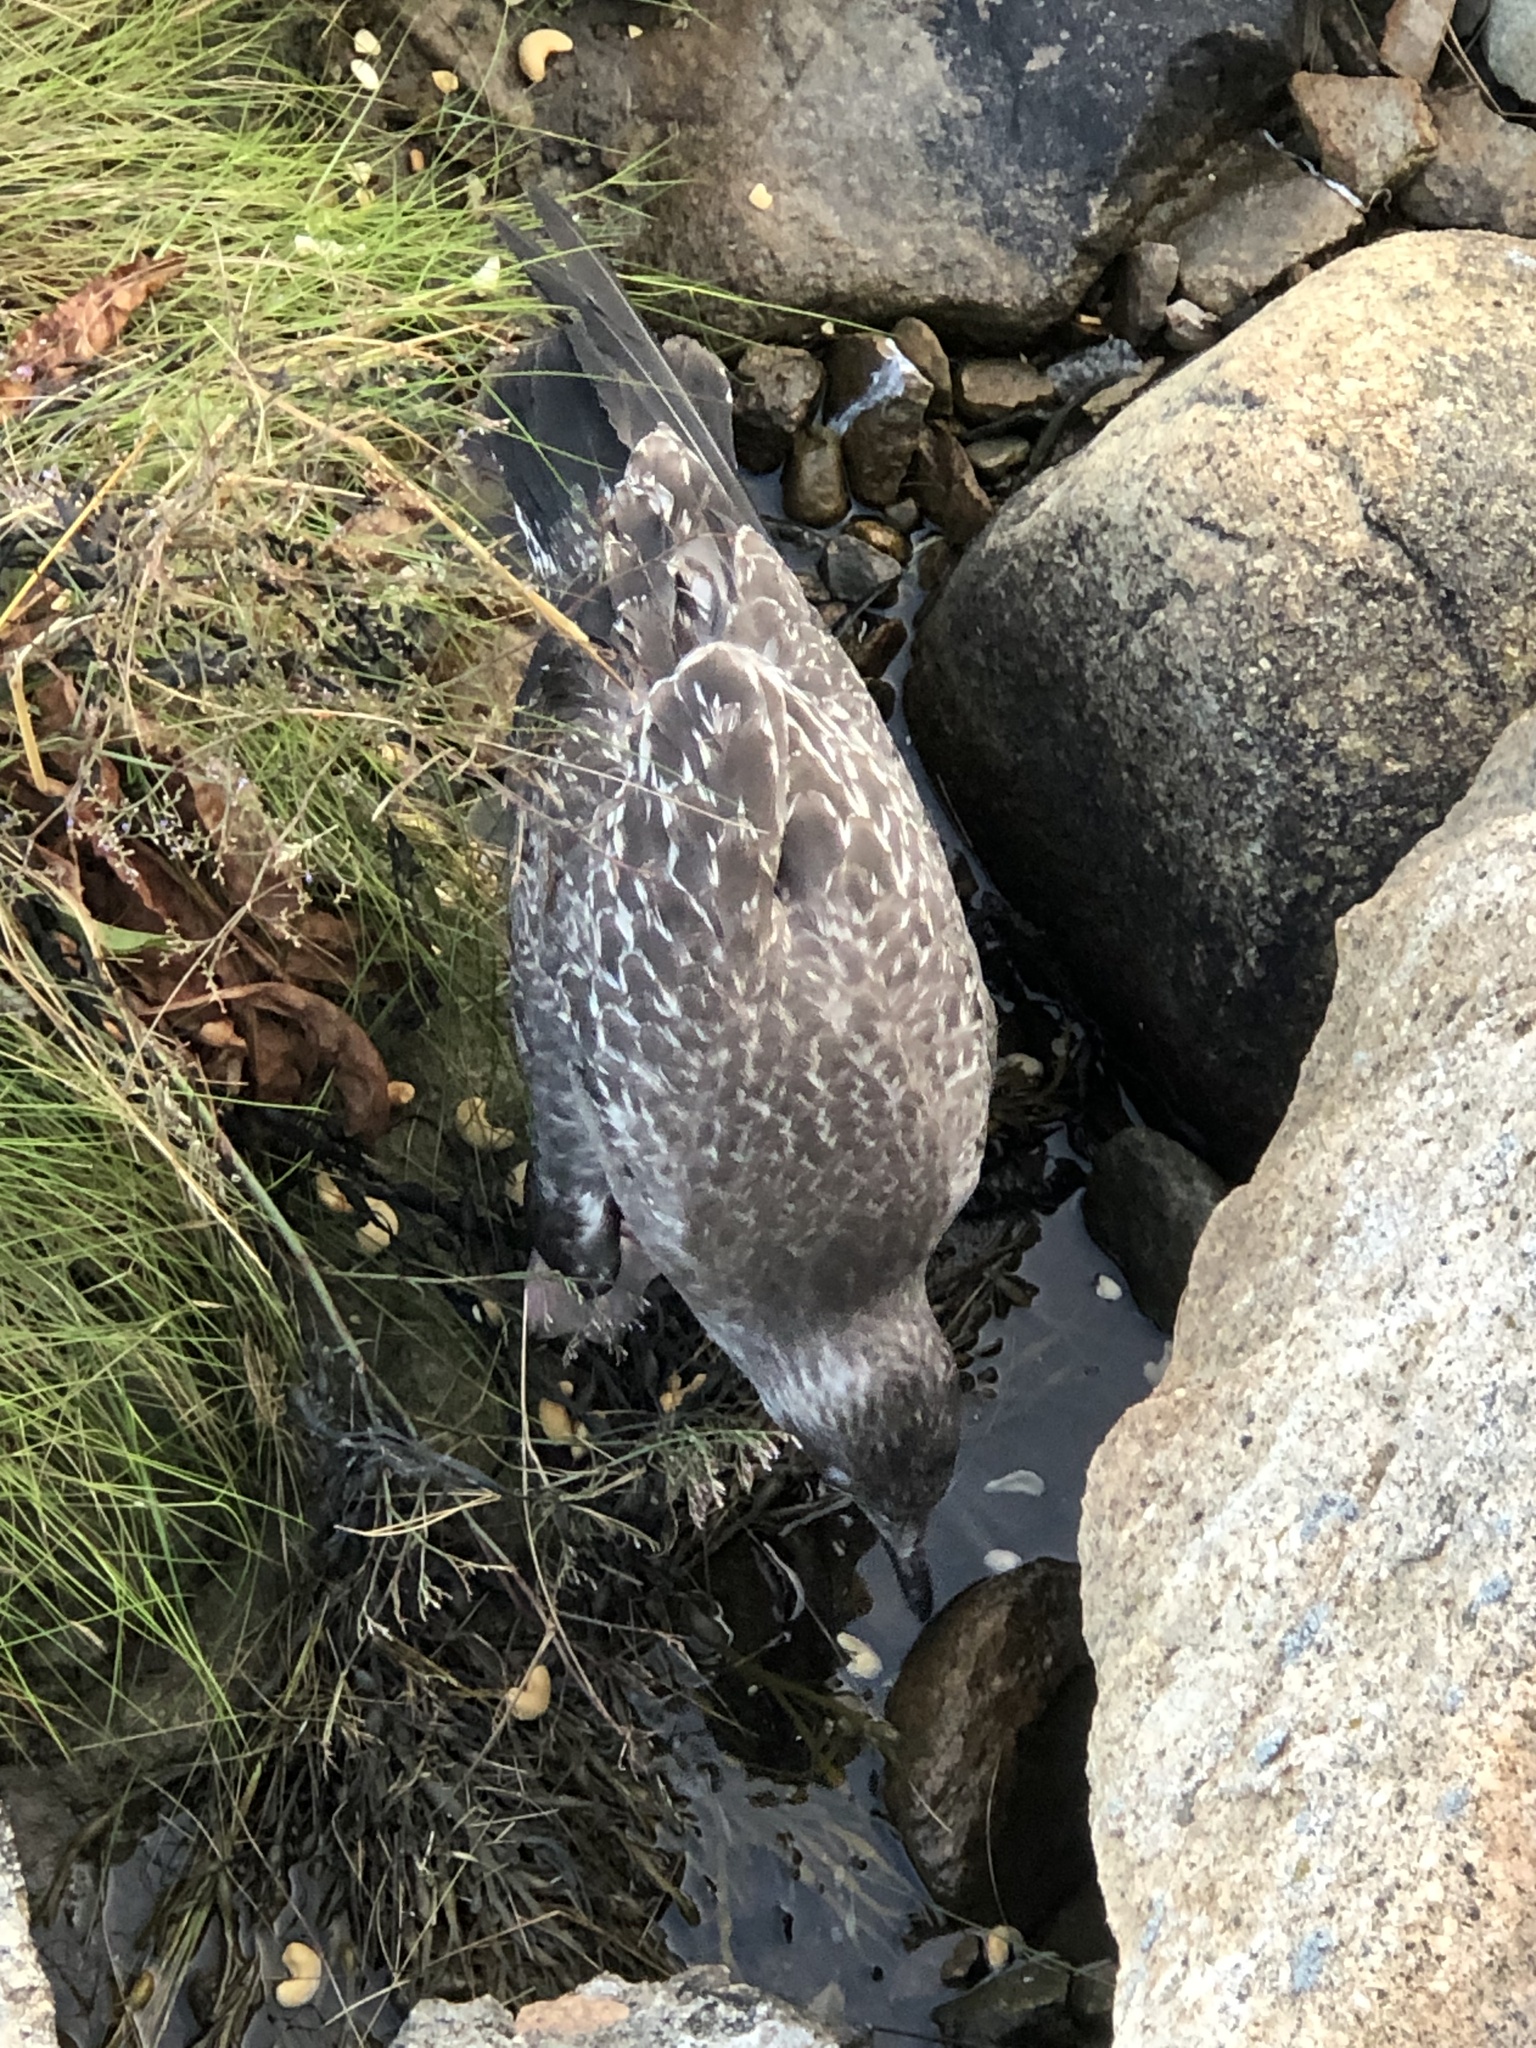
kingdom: Animalia
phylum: Chordata
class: Aves
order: Charadriiformes
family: Laridae
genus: Larus
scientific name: Larus argentatus
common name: Herring gull
